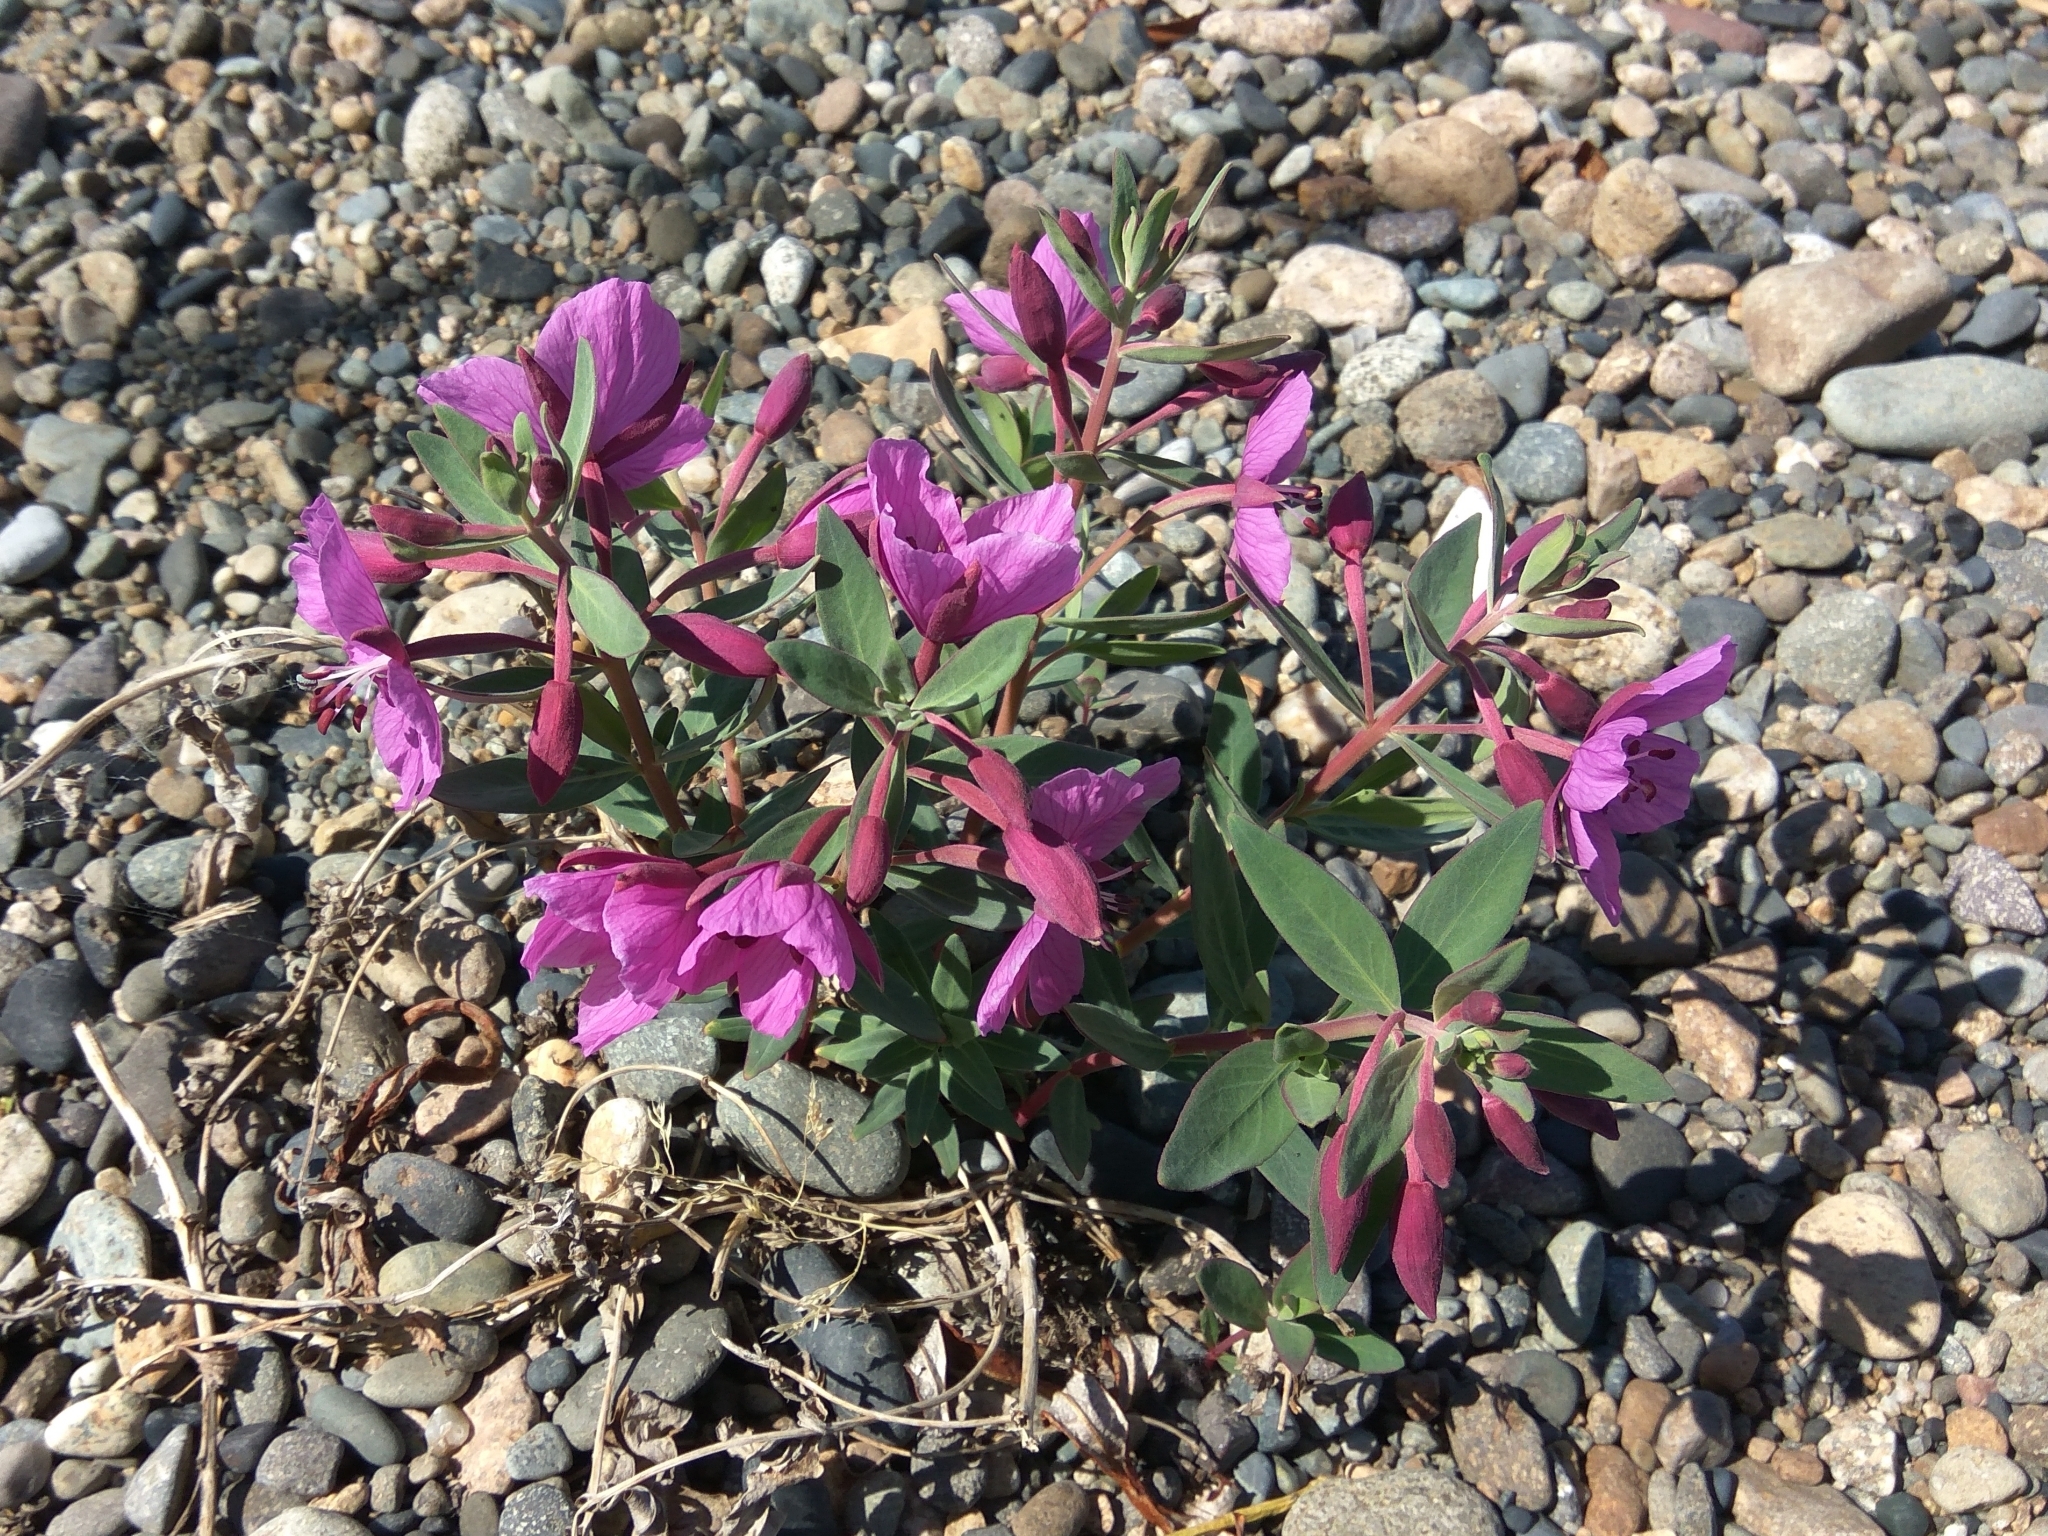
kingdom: Plantae
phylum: Tracheophyta
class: Magnoliopsida
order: Myrtales
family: Onagraceae
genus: Chamaenerion
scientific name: Chamaenerion latifolium
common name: Dwarf fireweed
